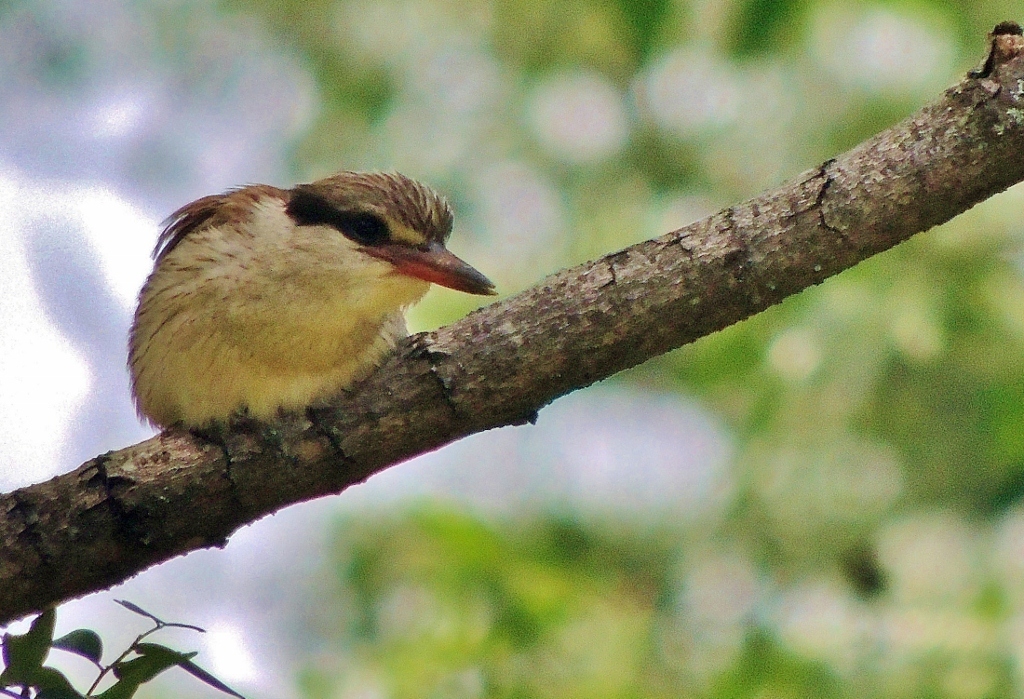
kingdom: Animalia
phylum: Chordata
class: Aves
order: Coraciiformes
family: Alcedinidae
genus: Halcyon
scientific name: Halcyon chelicuti
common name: Striped kingfisher
